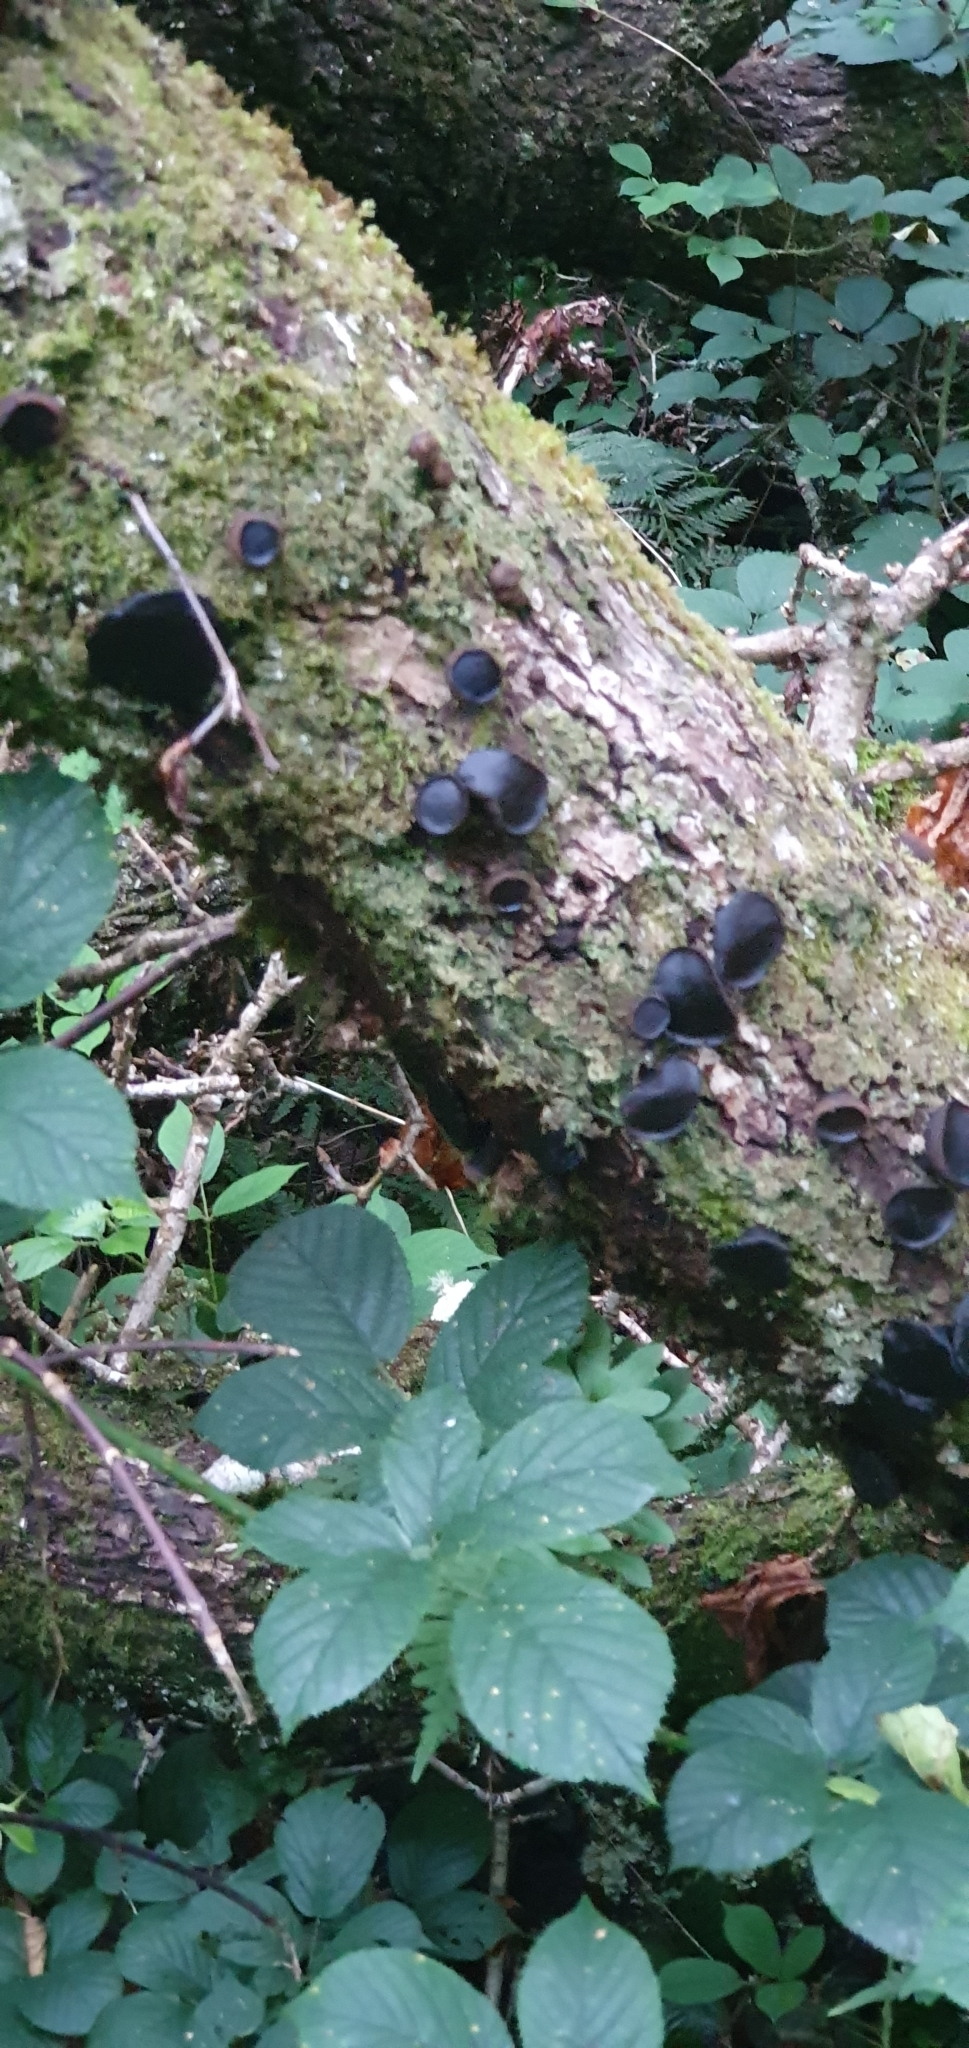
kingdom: Fungi
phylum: Ascomycota
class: Leotiomycetes
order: Phacidiales
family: Phacidiaceae
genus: Bulgaria
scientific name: Bulgaria inquinans
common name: Black bulgar
